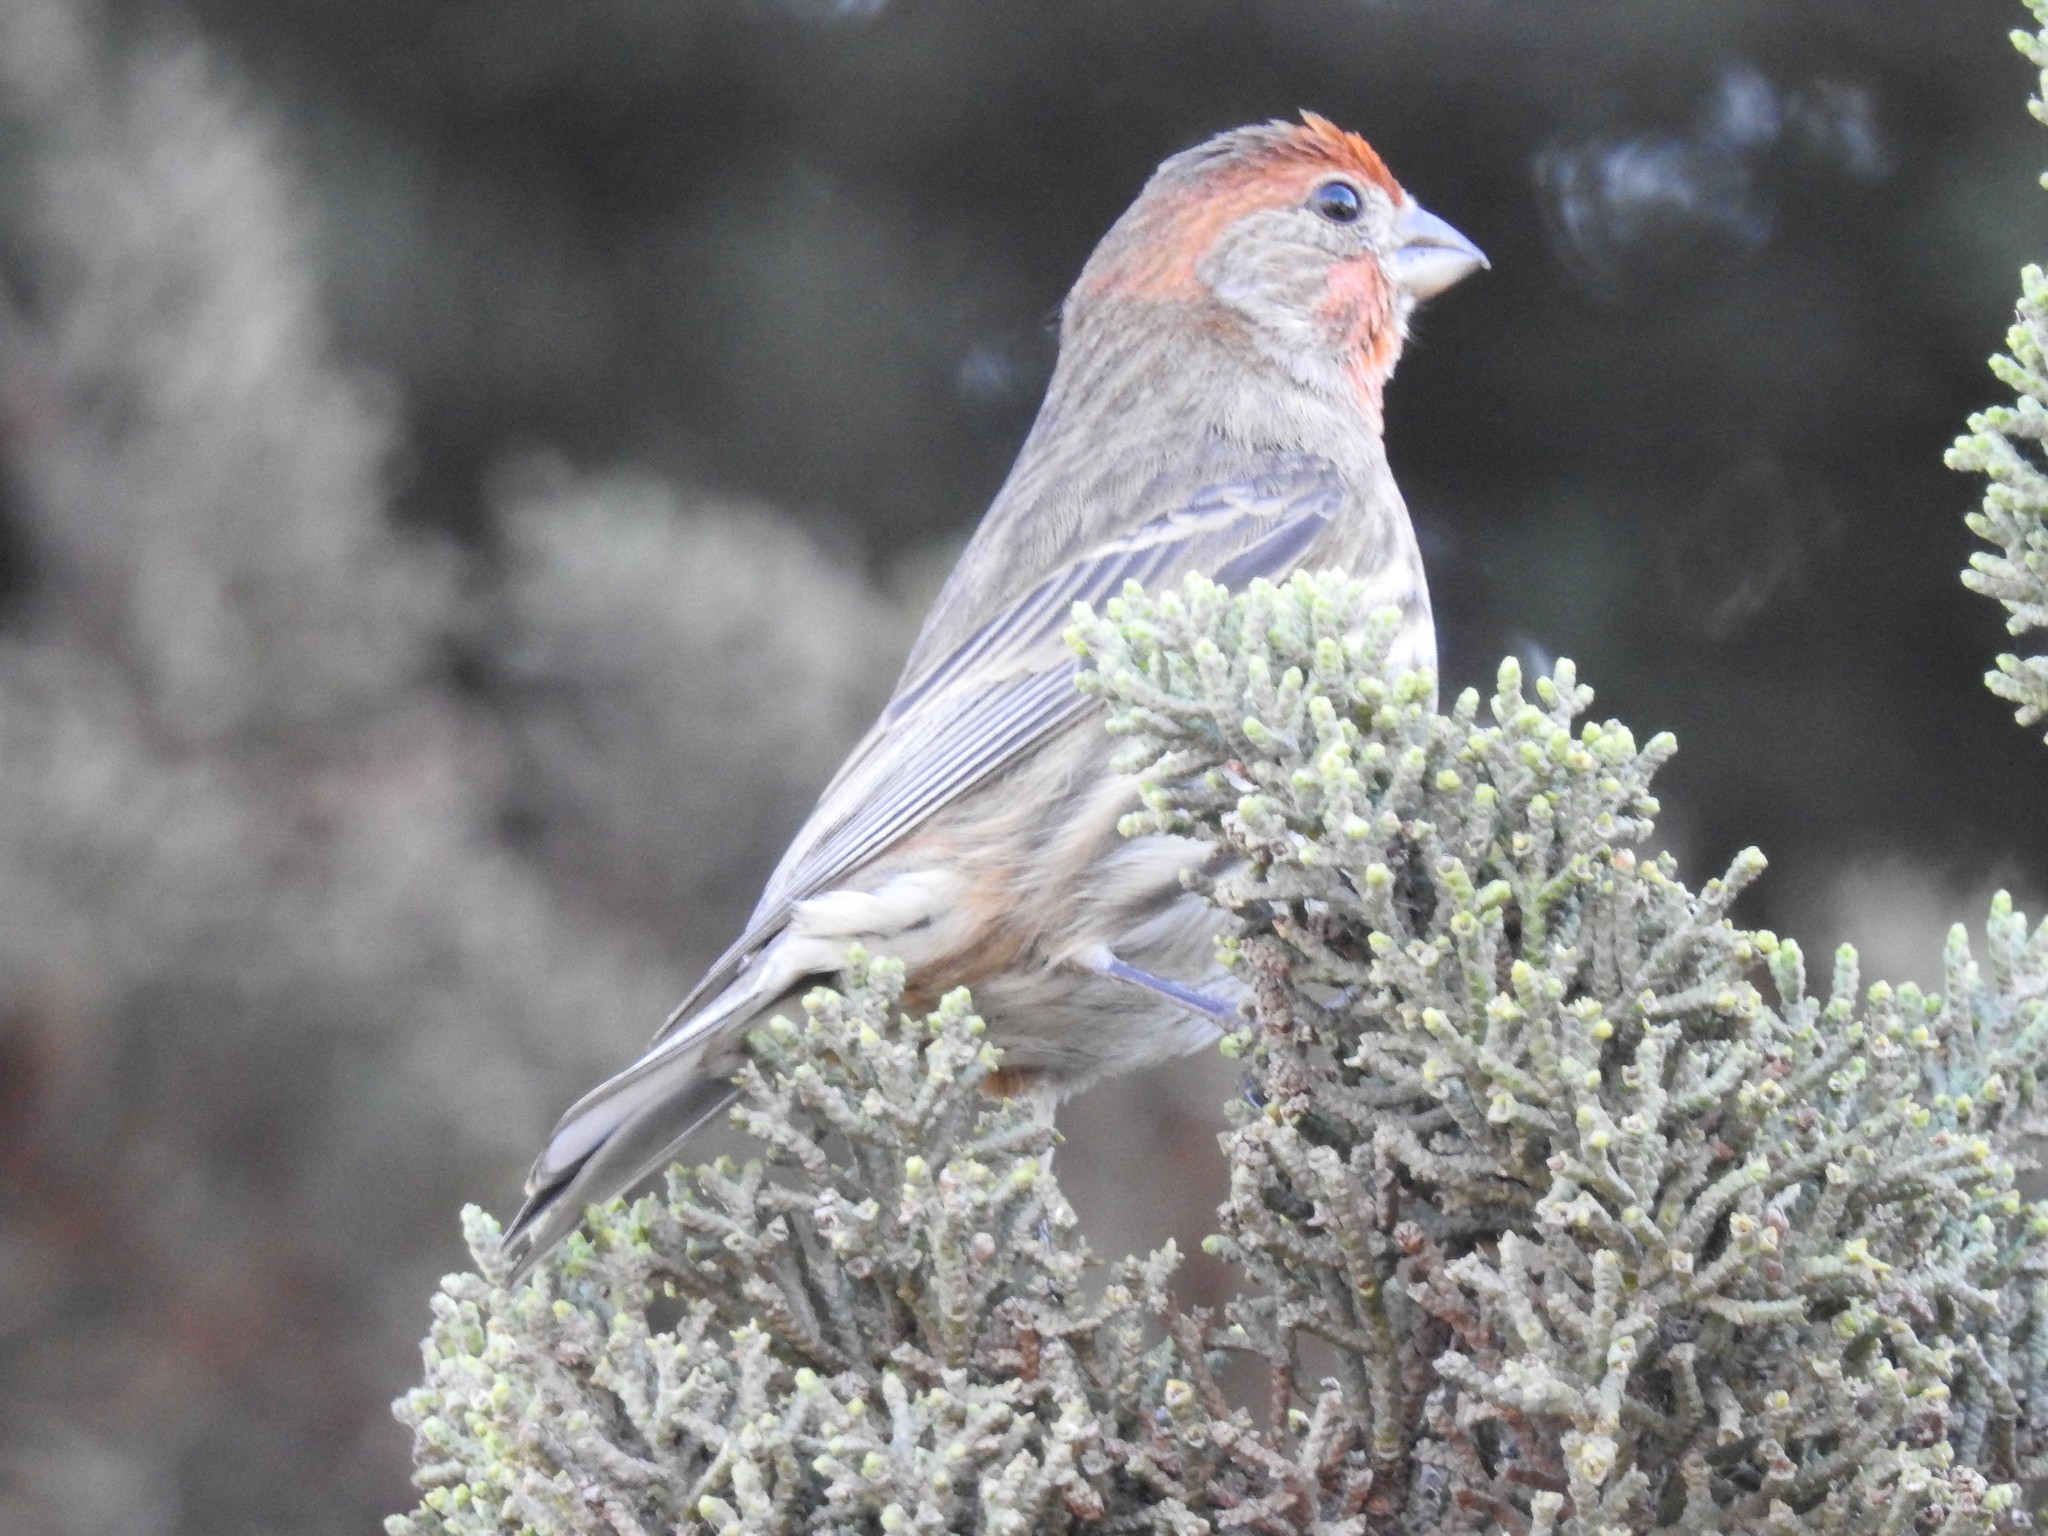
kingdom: Animalia
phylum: Chordata
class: Aves
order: Passeriformes
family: Fringillidae
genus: Haemorhous
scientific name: Haemorhous mexicanus
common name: House finch
